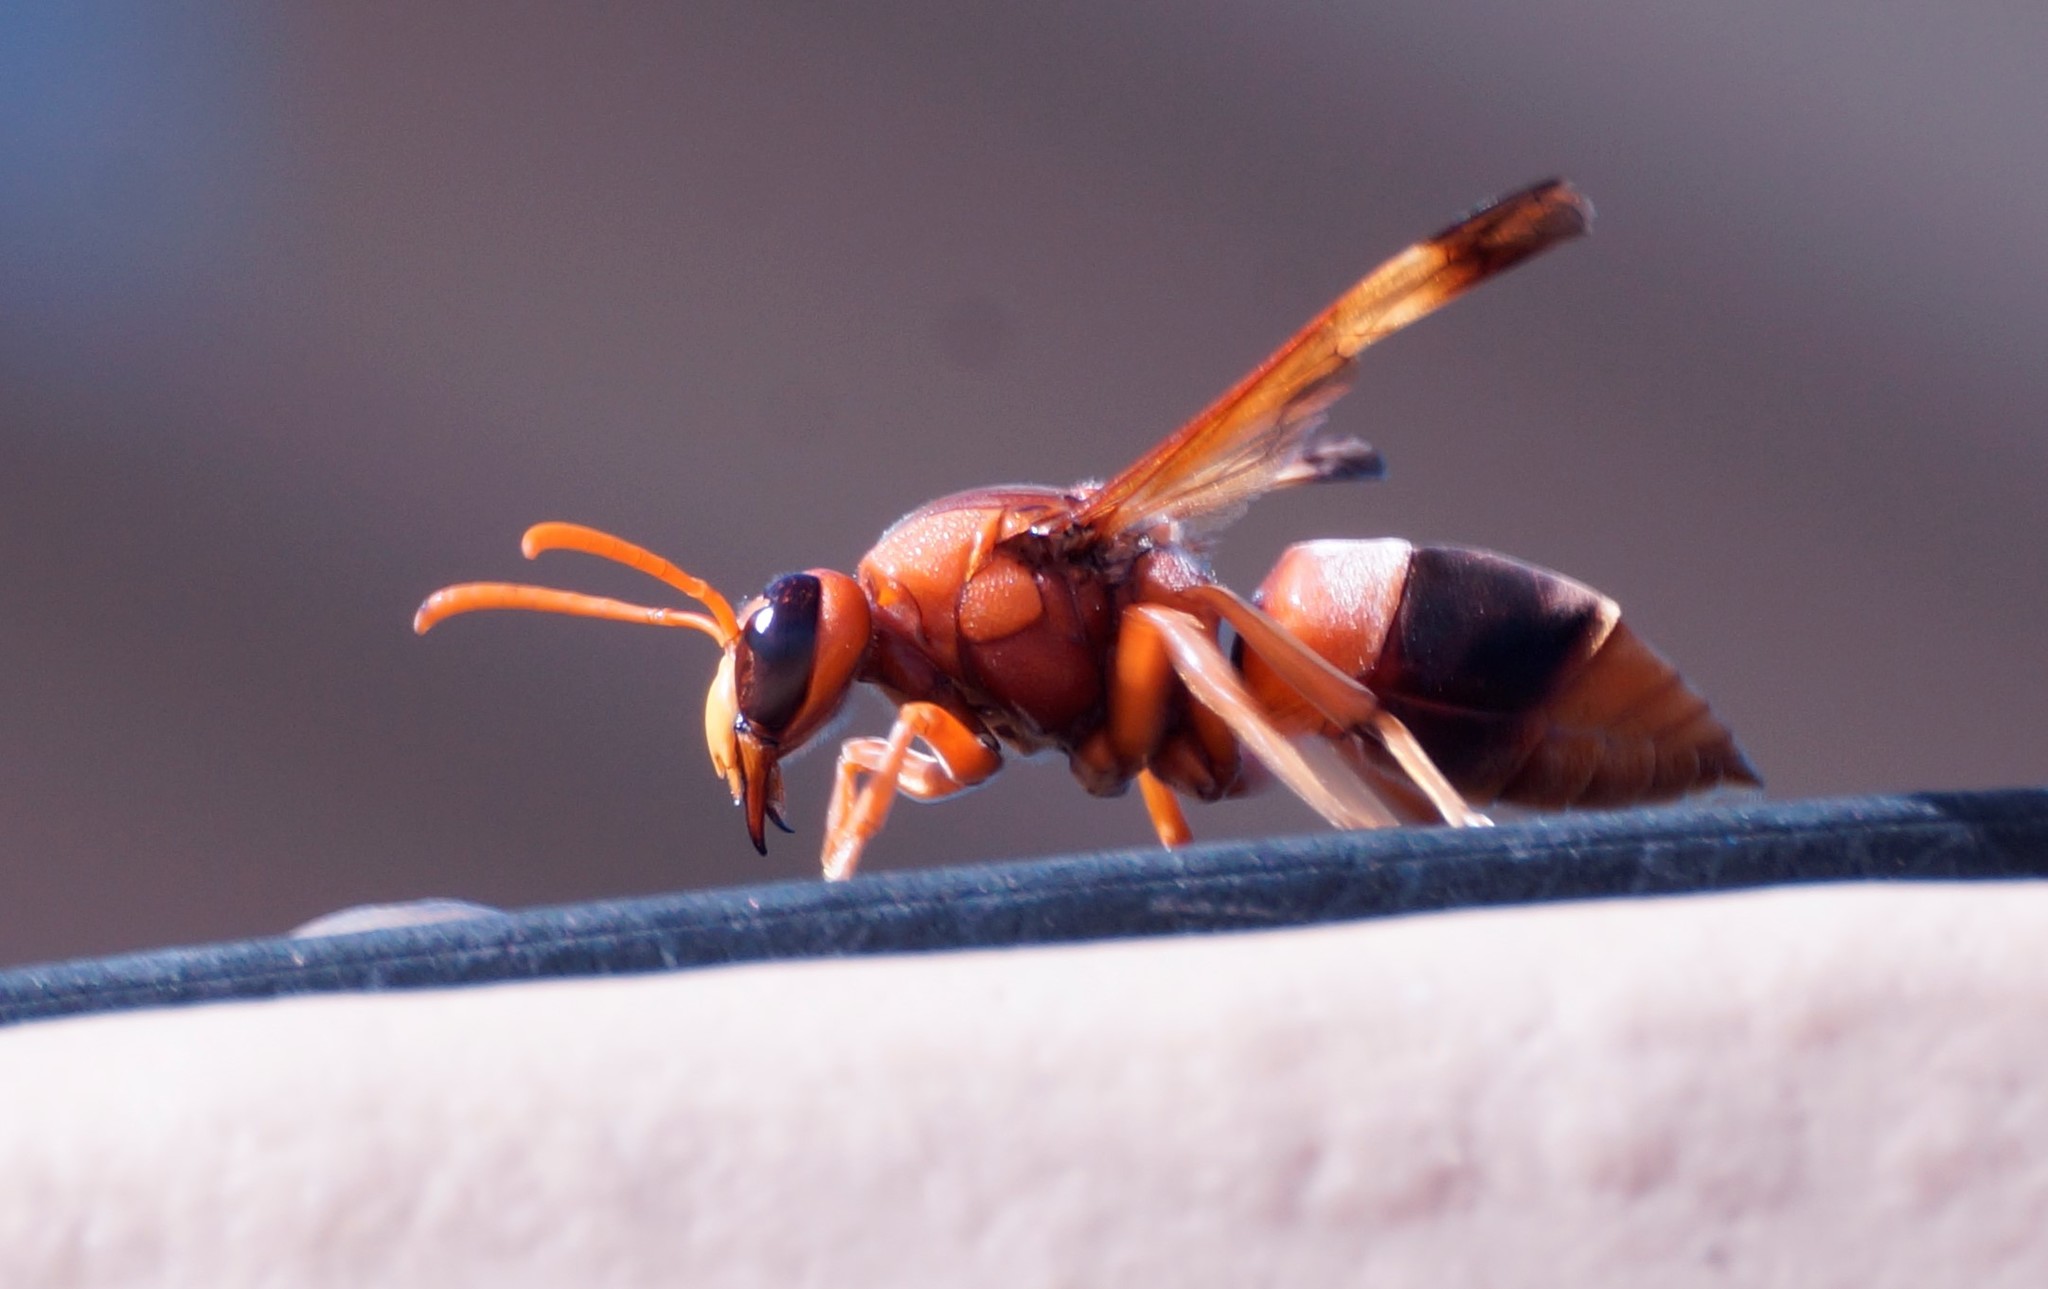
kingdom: Animalia
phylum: Arthropoda
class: Insecta
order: Hymenoptera
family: Eumenidae
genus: Abispa
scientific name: Abispa ephippium
